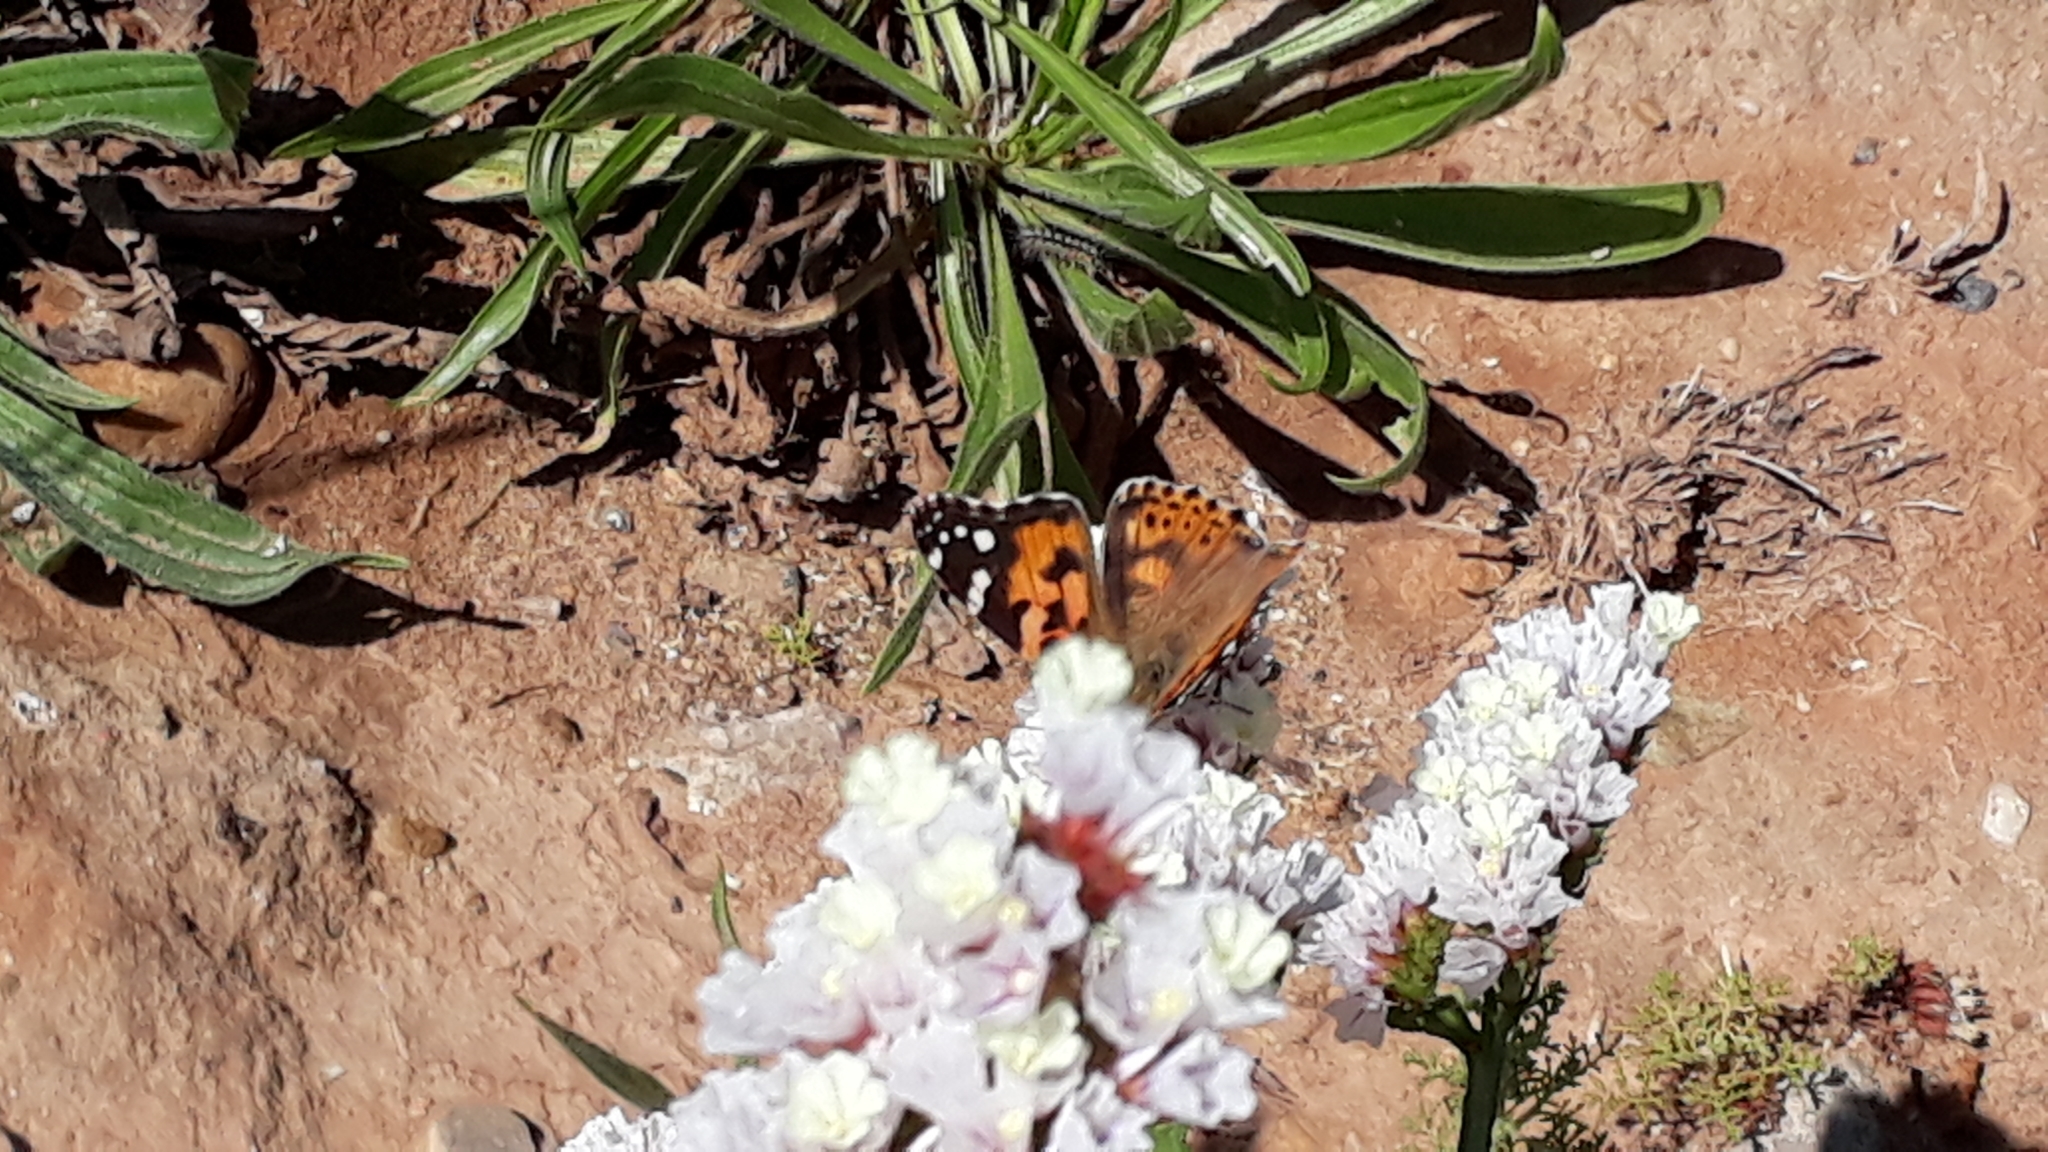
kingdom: Animalia
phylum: Arthropoda
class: Insecta
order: Lepidoptera
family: Nymphalidae
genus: Vanessa
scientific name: Vanessa cardui
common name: Painted lady
